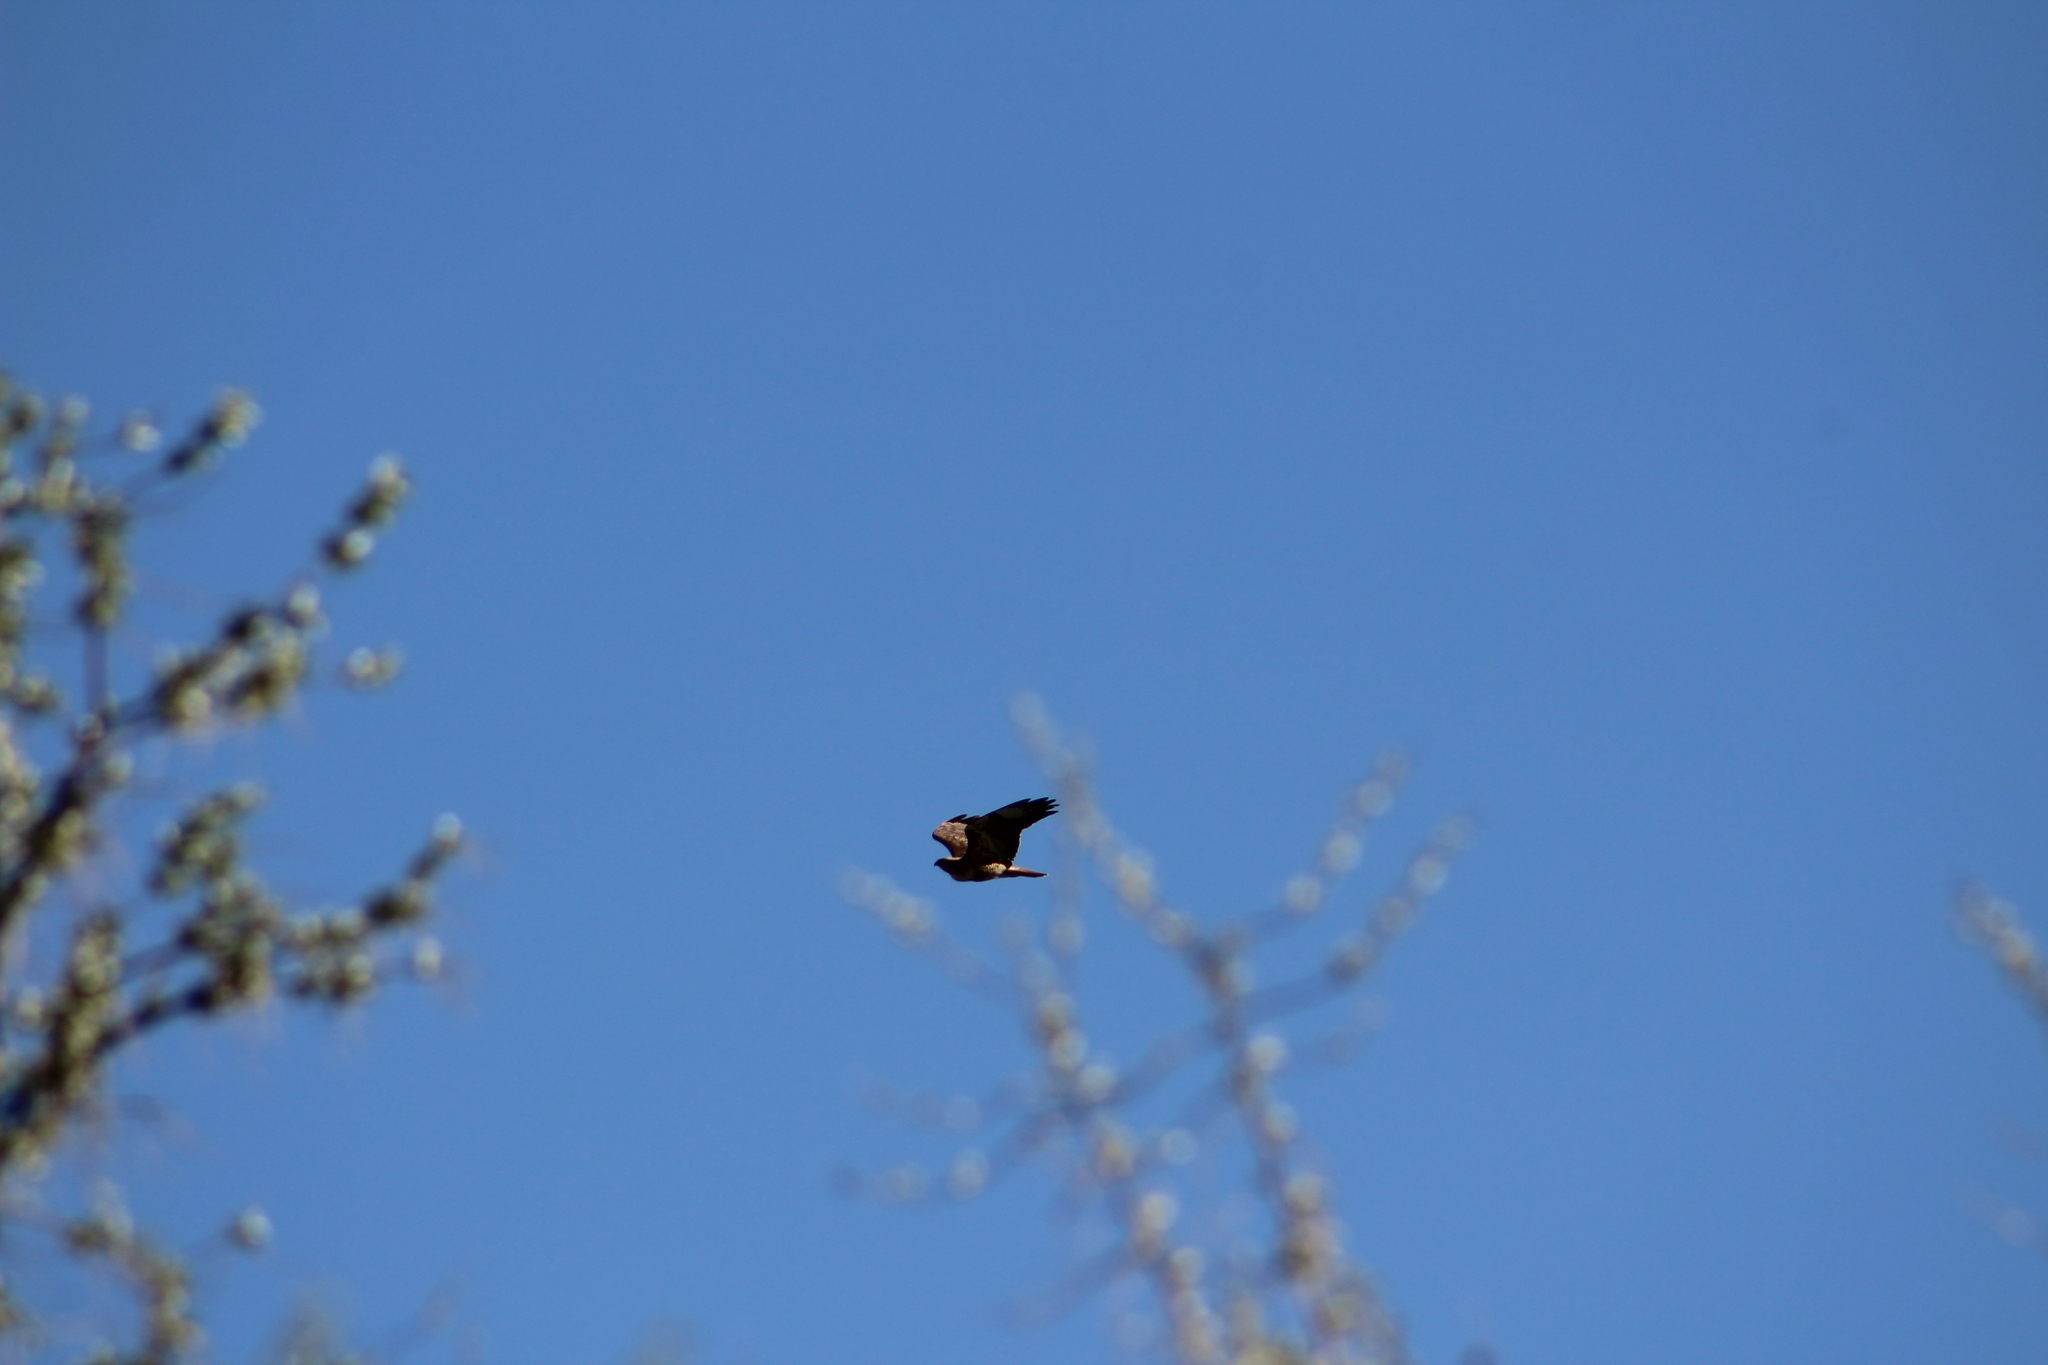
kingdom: Animalia
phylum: Chordata
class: Aves
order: Accipitriformes
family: Accipitridae
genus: Buteo
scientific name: Buteo jamaicensis
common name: Red-tailed hawk
